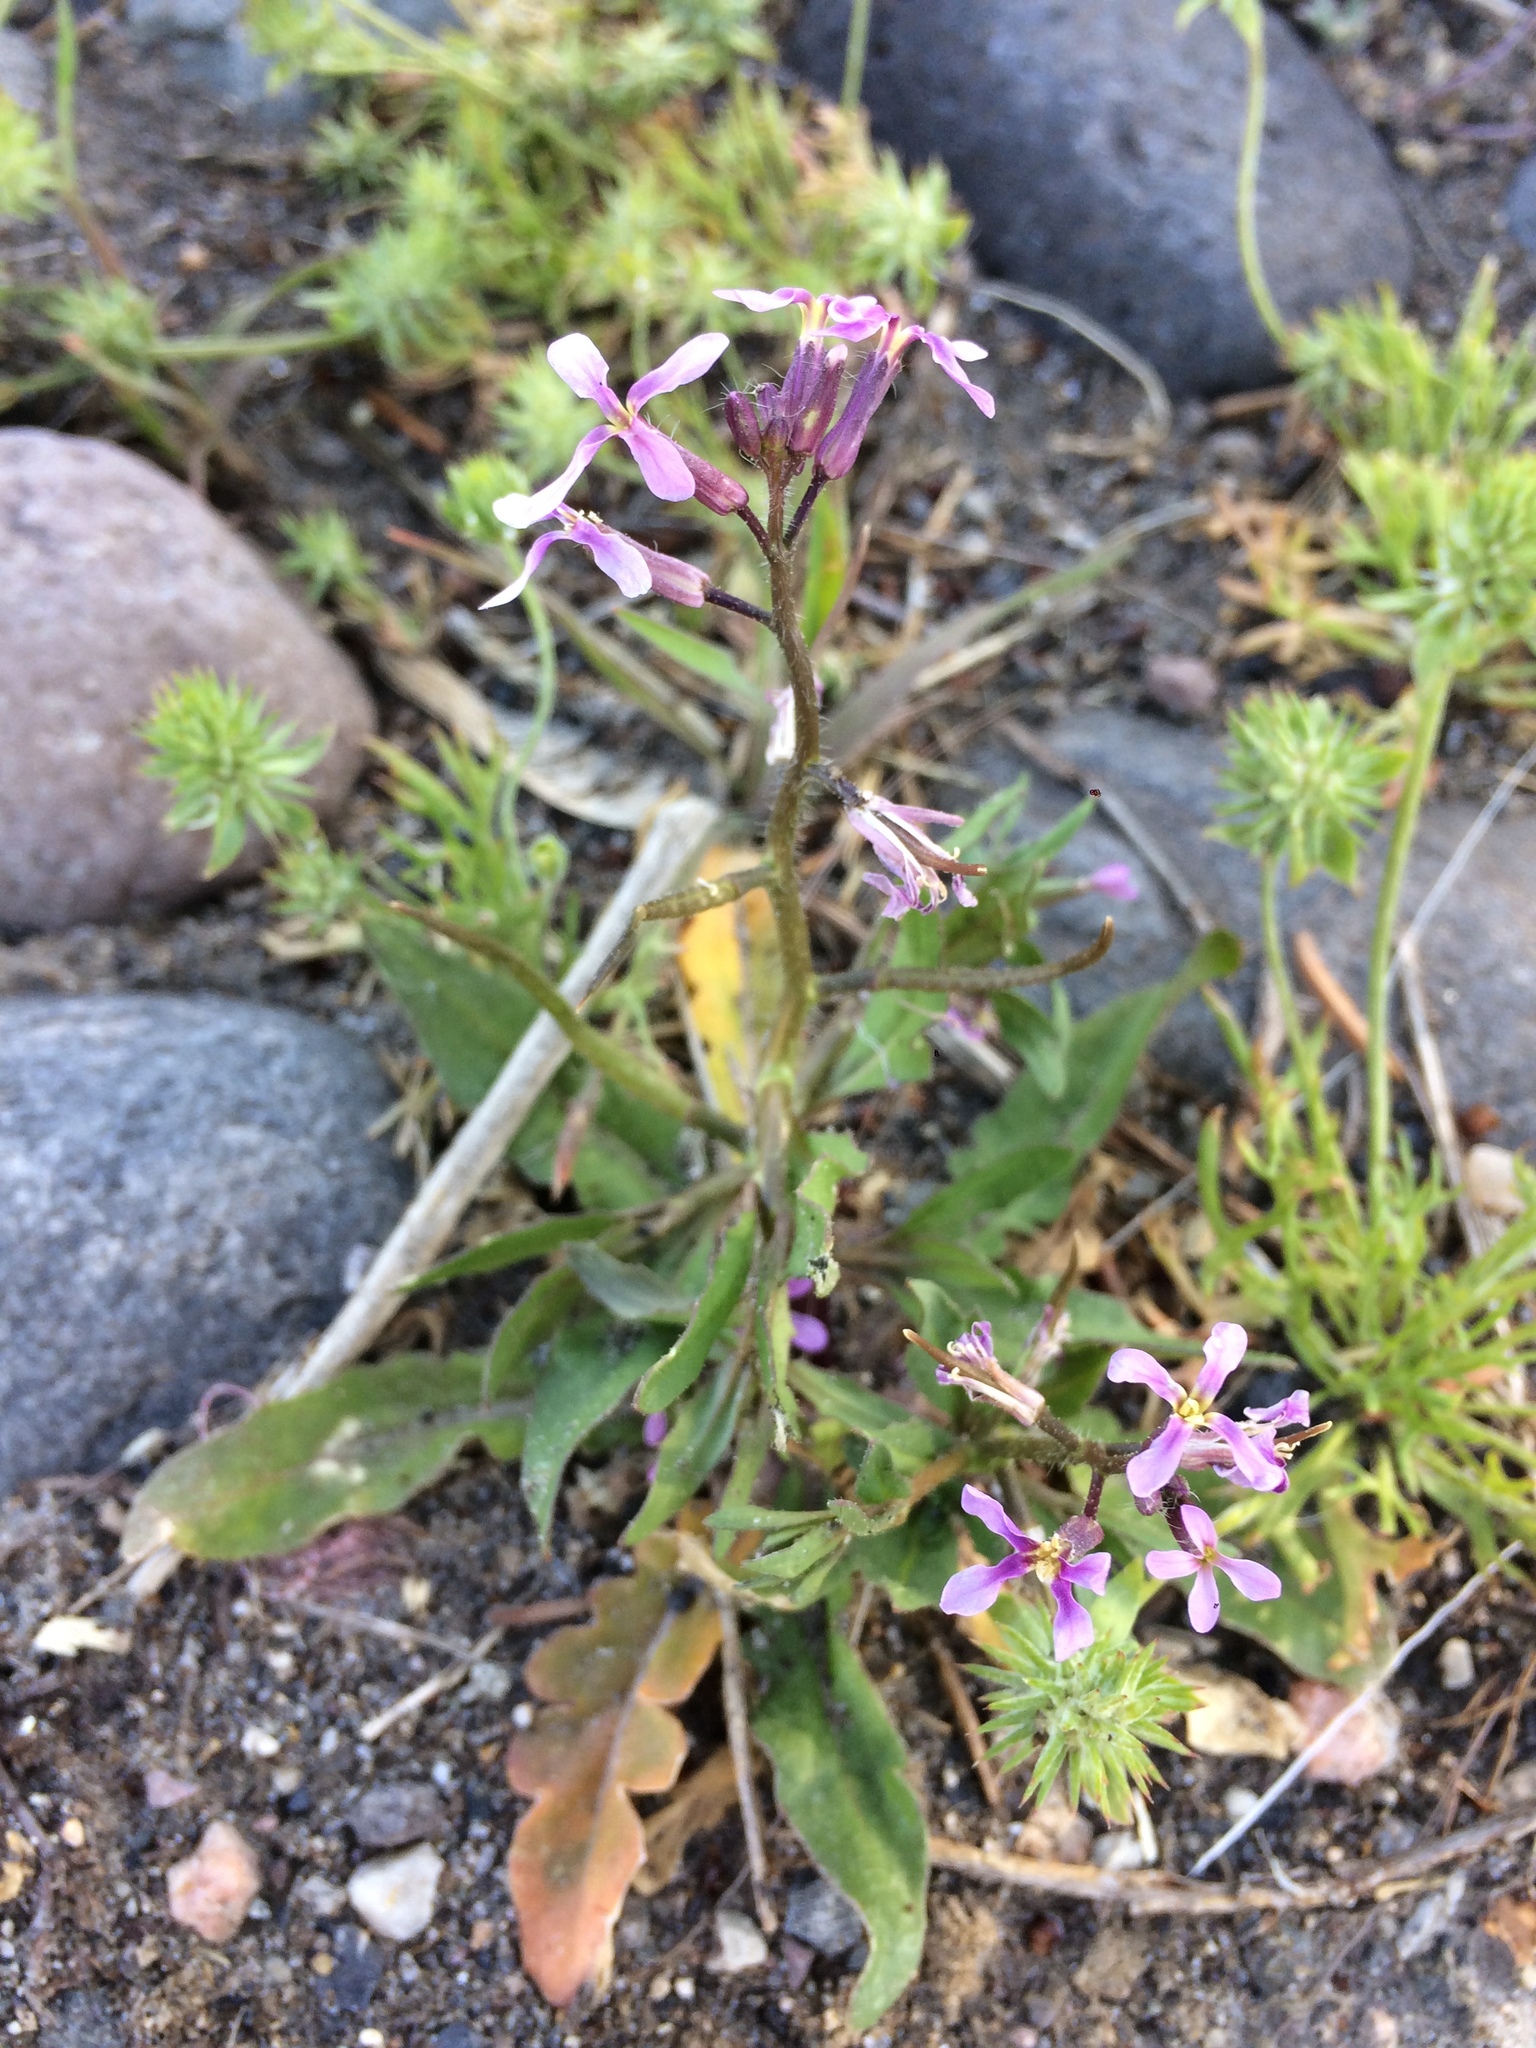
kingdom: Plantae
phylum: Tracheophyta
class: Magnoliopsida
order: Brassicales
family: Brassicaceae
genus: Chorispora
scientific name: Chorispora tenella
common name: Crossflower
